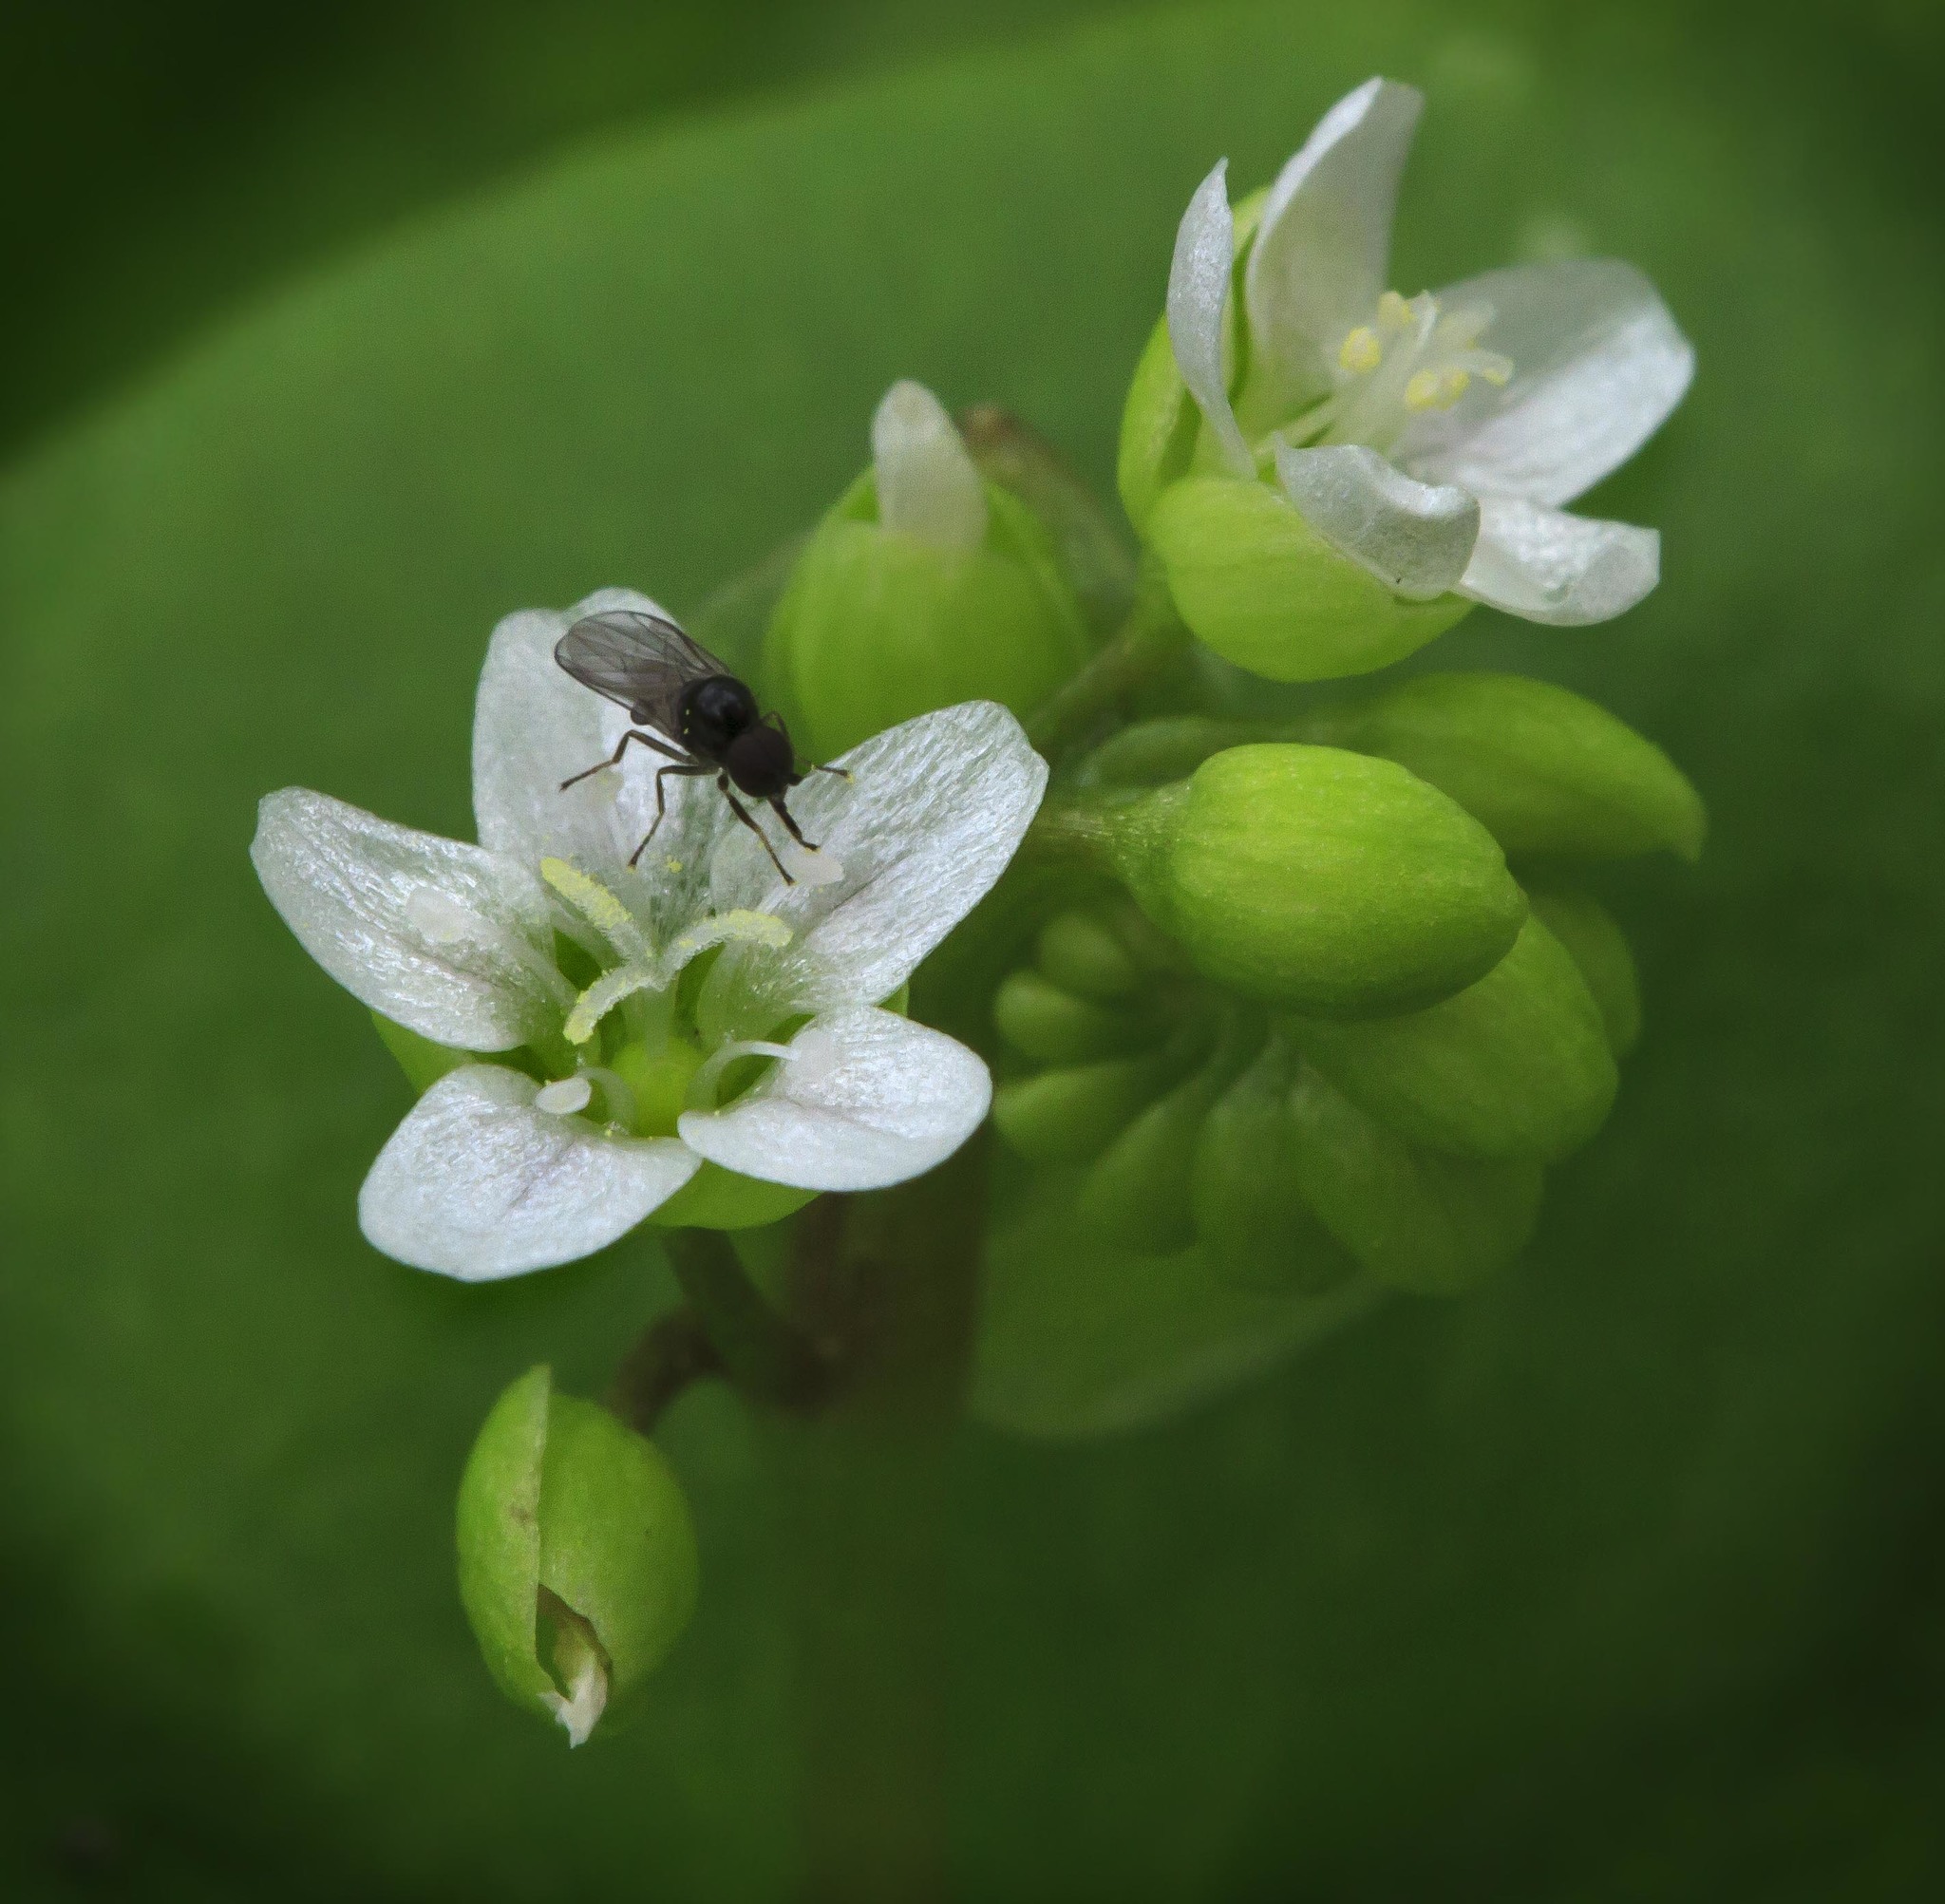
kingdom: Plantae
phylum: Tracheophyta
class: Magnoliopsida
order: Caryophyllales
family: Montiaceae
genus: Claytonia
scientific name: Claytonia perfoliata
